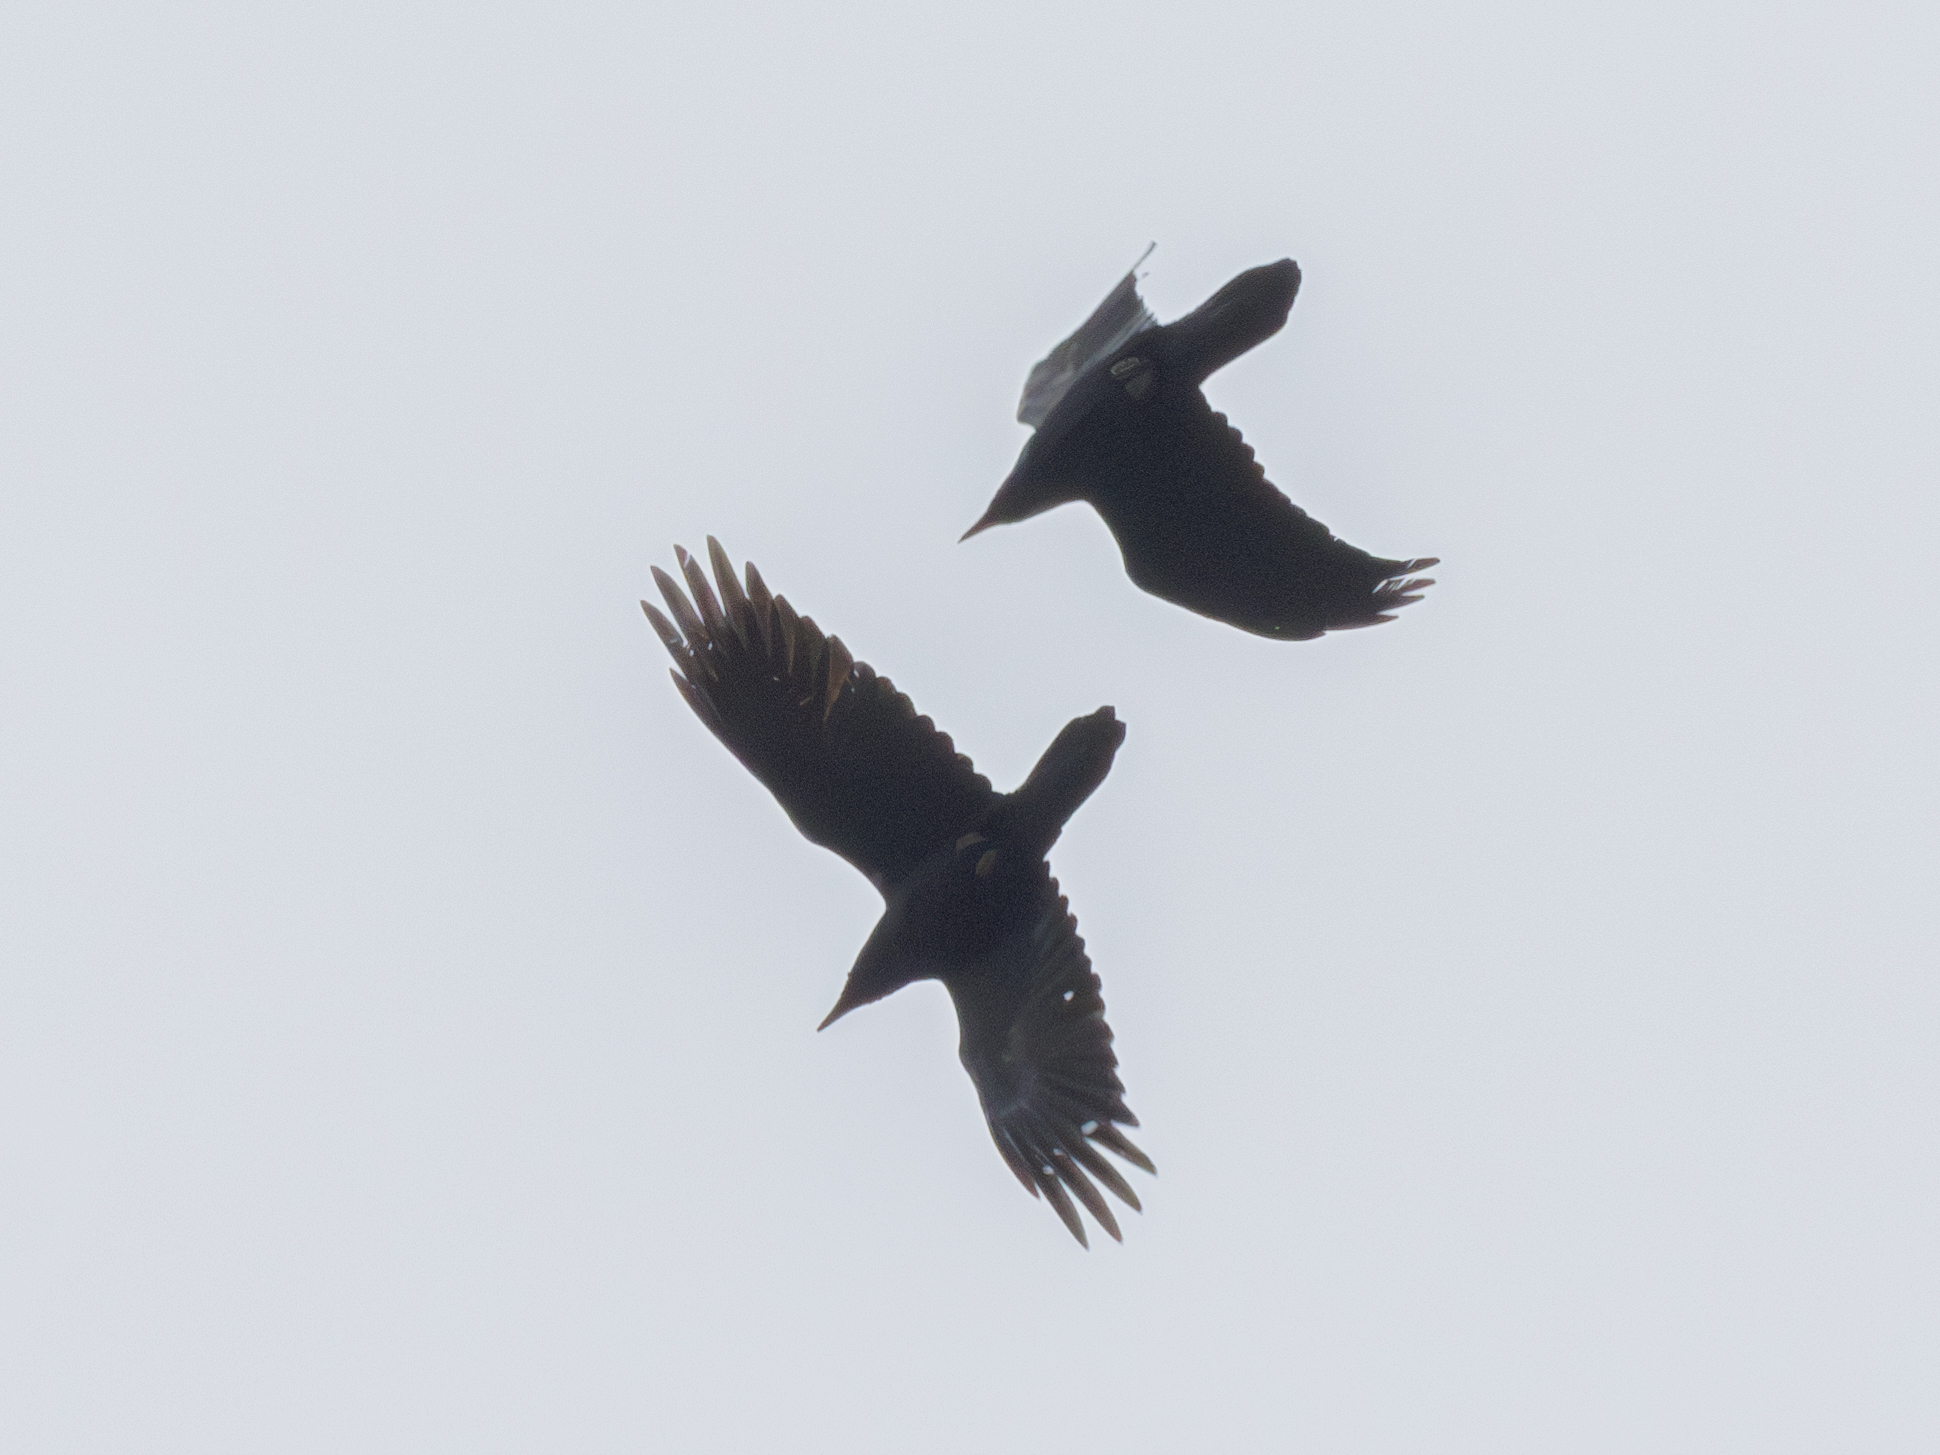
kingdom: Animalia
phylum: Chordata
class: Aves
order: Passeriformes
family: Corvidae
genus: Corvus
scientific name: Corvus corax
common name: Common raven
